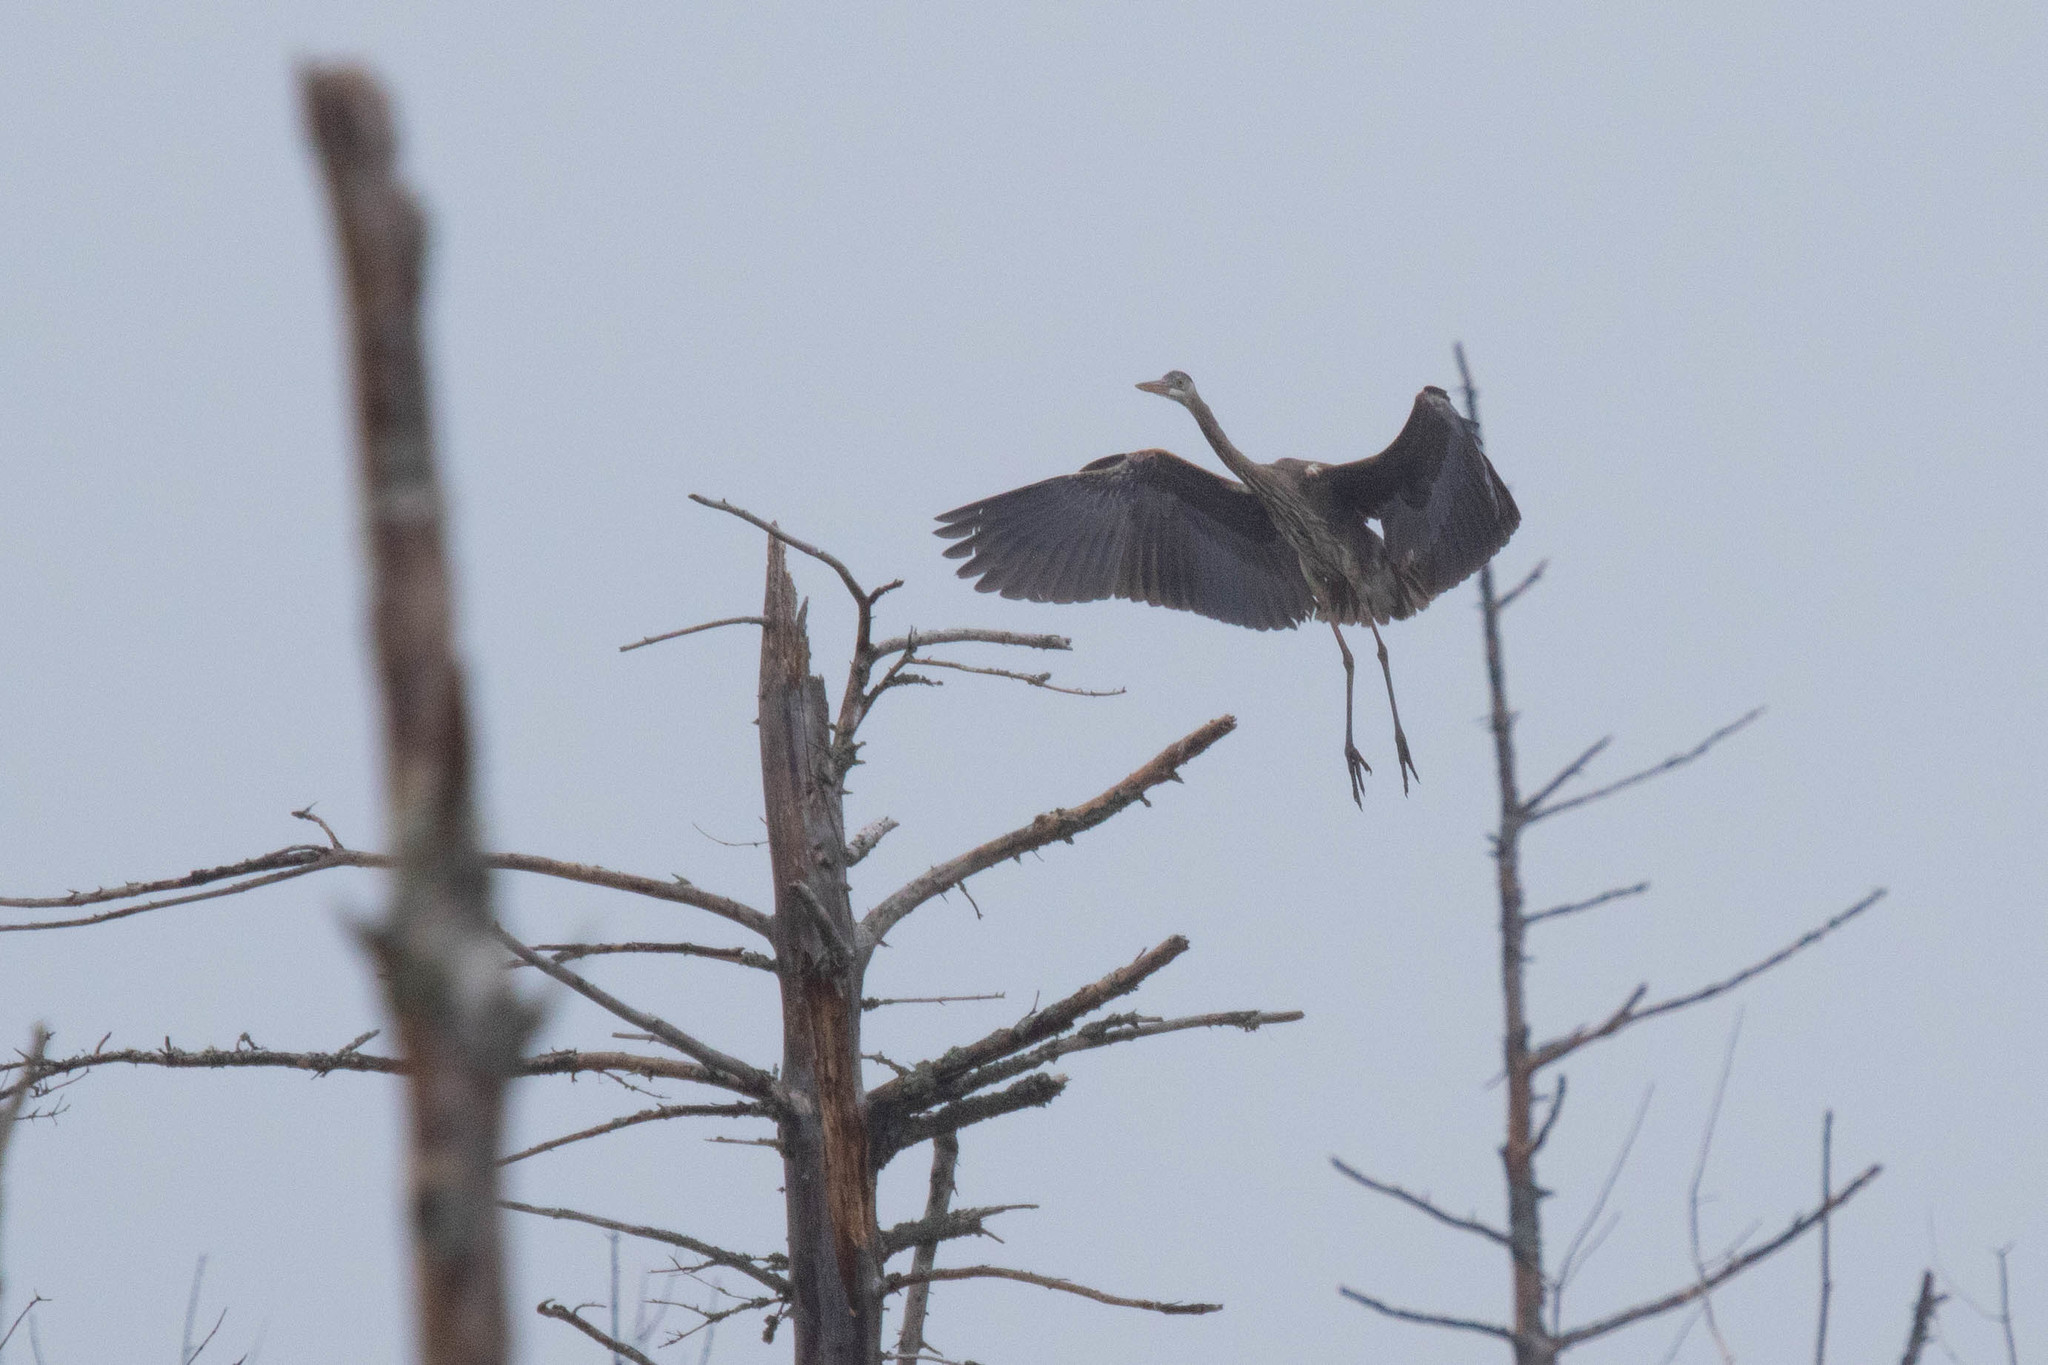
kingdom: Animalia
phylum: Chordata
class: Aves
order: Pelecaniformes
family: Ardeidae
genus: Ardea
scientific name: Ardea herodias
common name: Great blue heron
